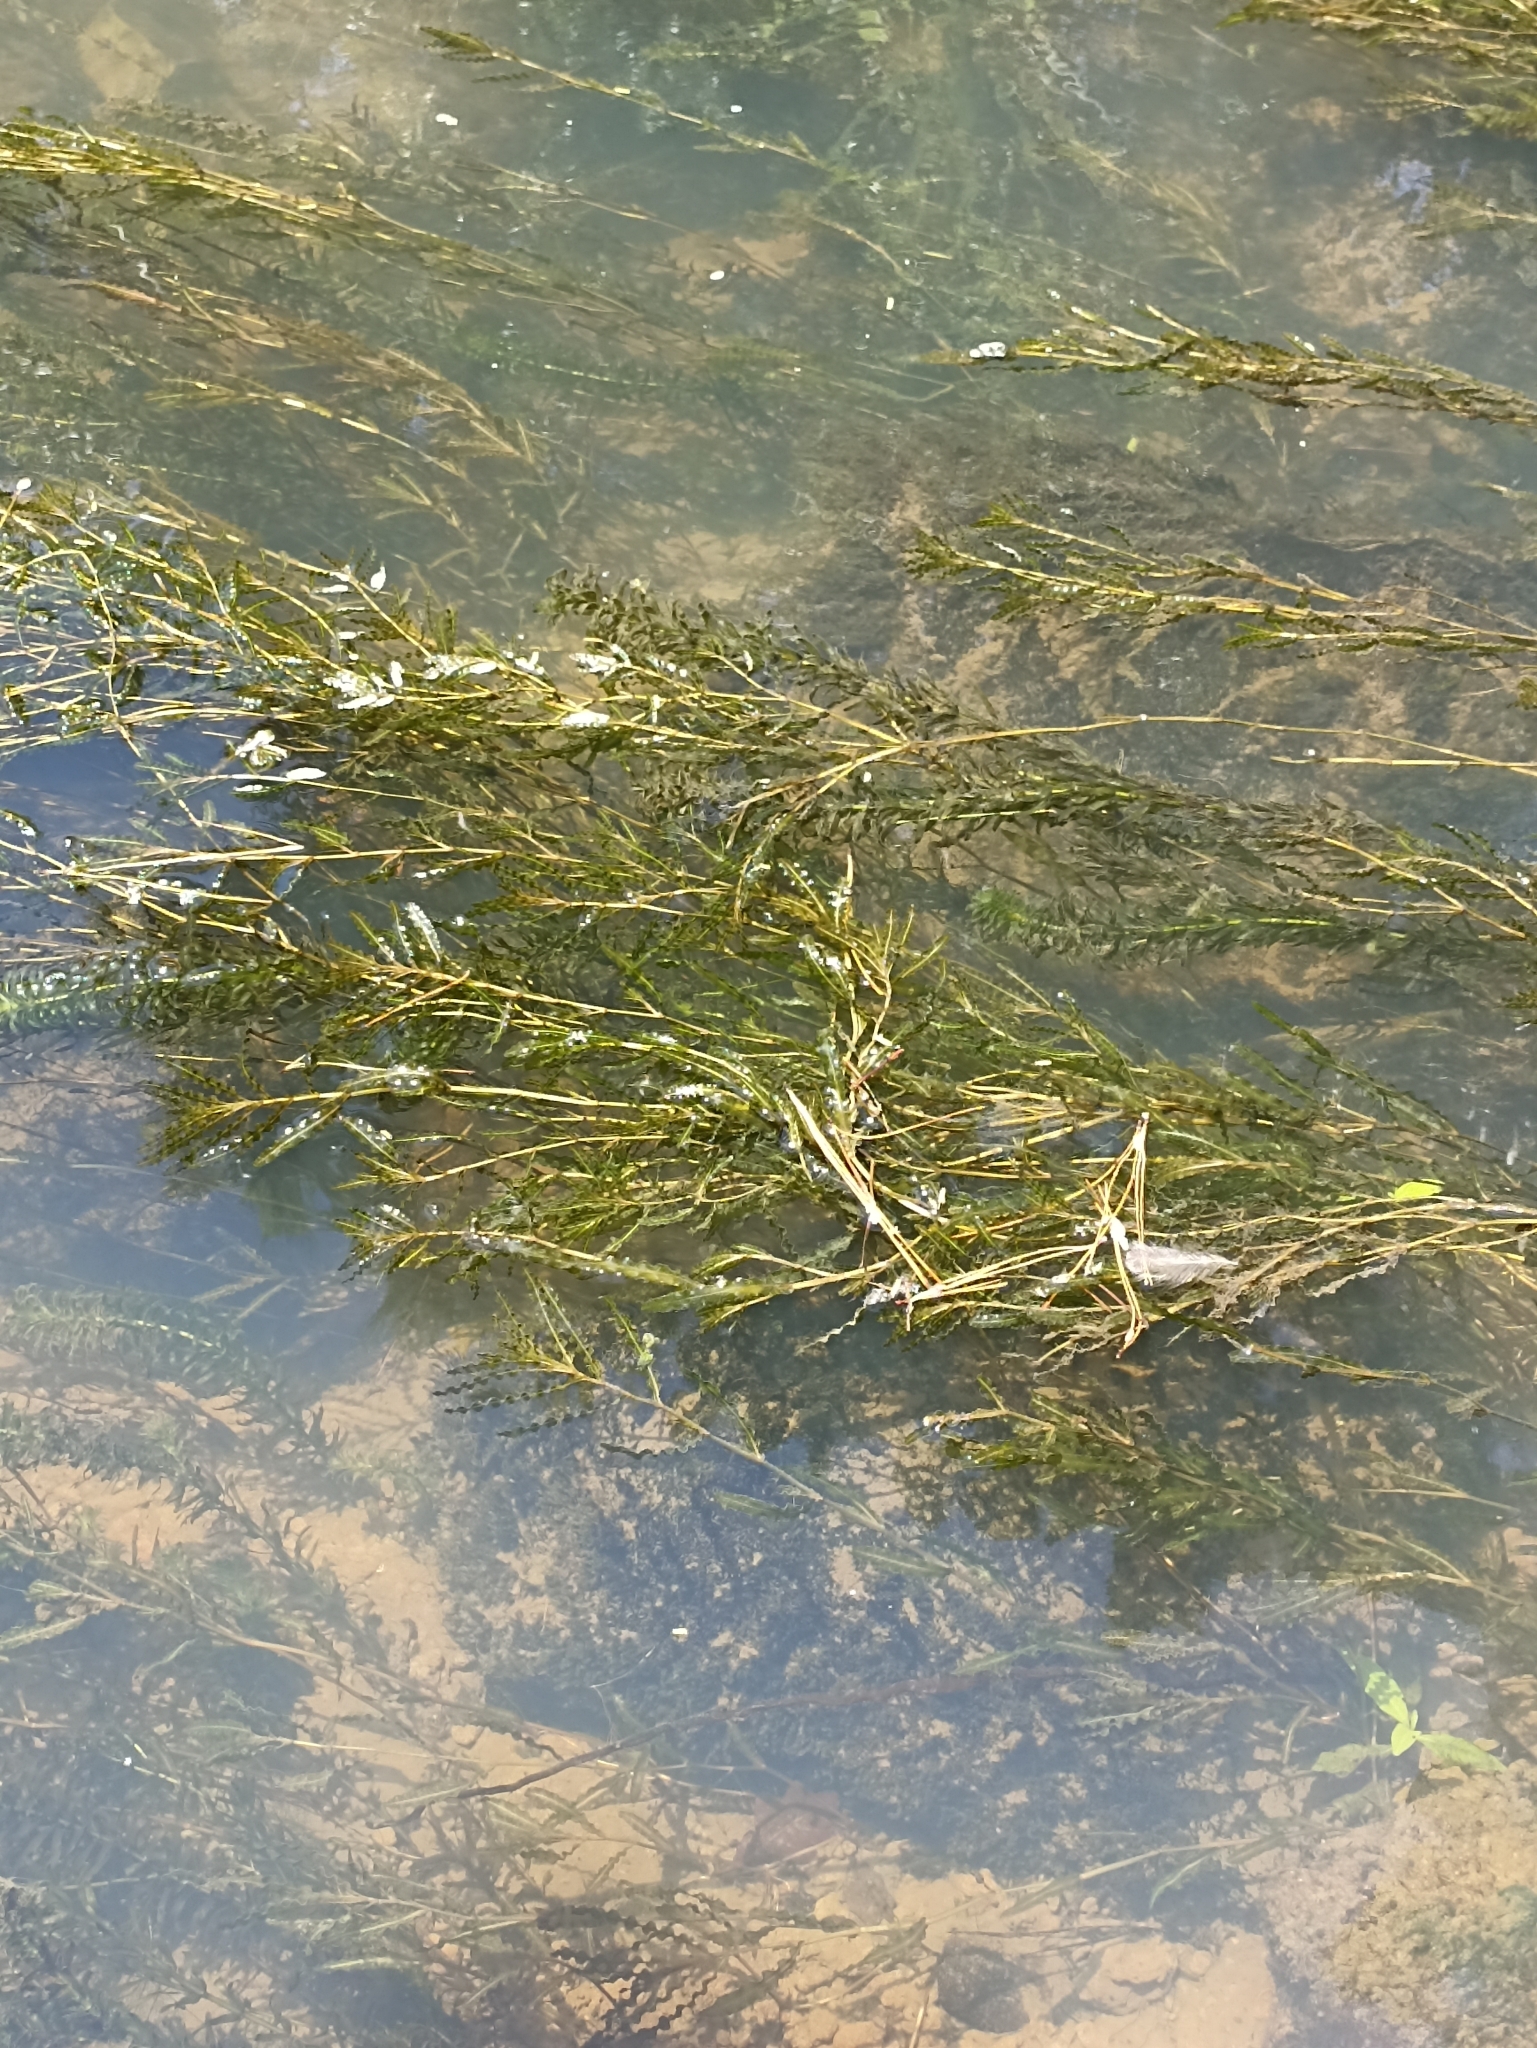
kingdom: Plantae
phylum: Tracheophyta
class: Liliopsida
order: Alismatales
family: Potamogetonaceae
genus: Potamogeton
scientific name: Potamogeton crispus
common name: Curled pondweed
